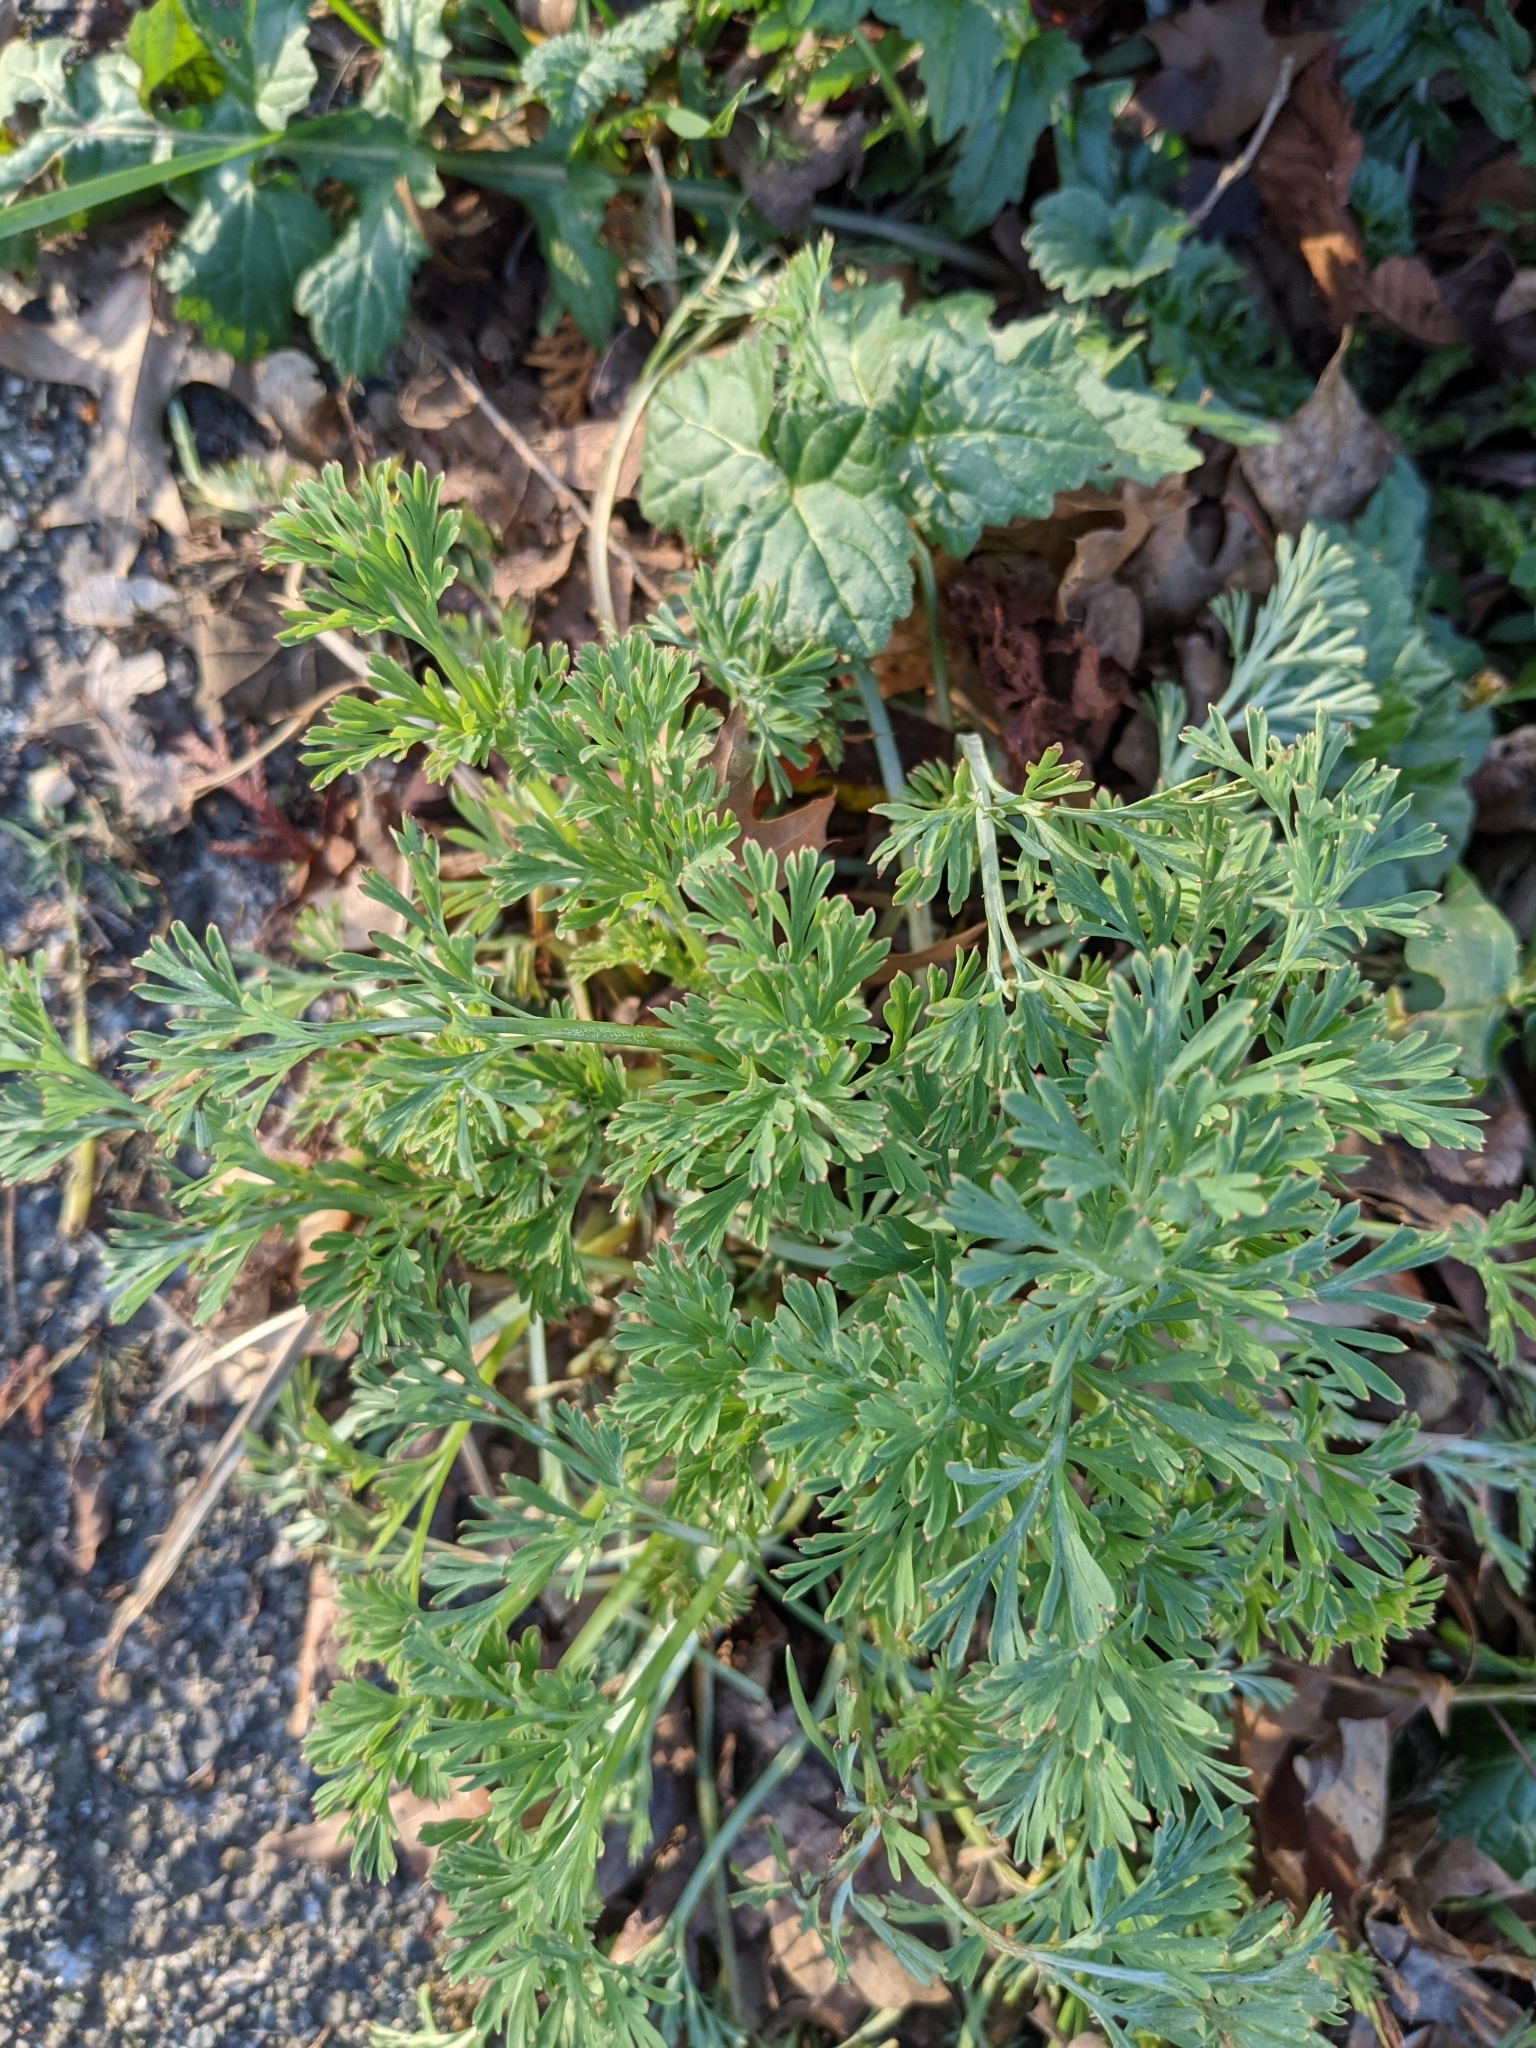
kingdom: Plantae
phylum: Tracheophyta
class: Magnoliopsida
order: Asterales
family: Asteraceae
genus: Artemisia
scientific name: Artemisia absinthium
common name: Wormwood
